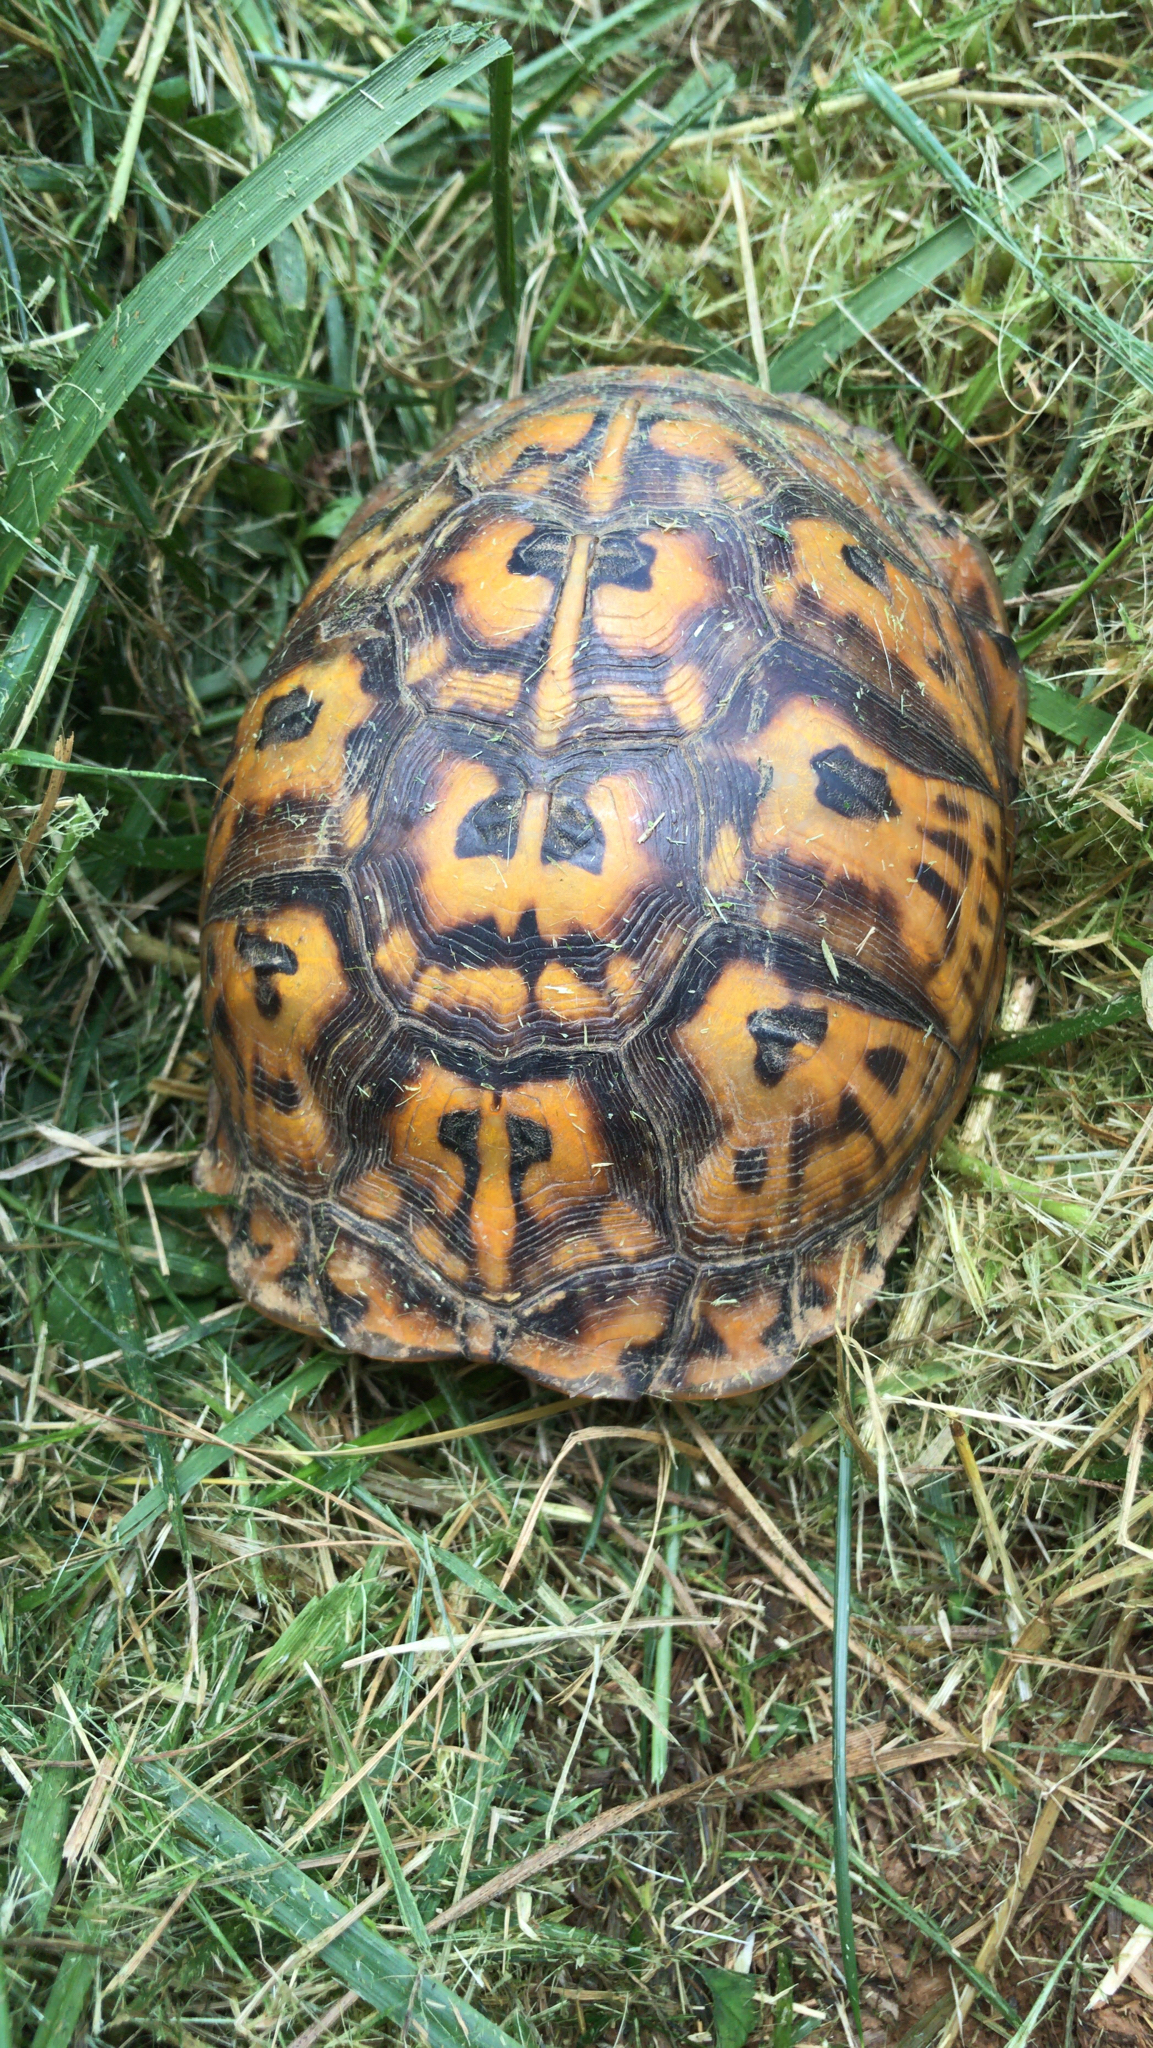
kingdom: Animalia
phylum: Chordata
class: Testudines
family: Emydidae
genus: Terrapene
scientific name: Terrapene carolina
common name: Common box turtle
